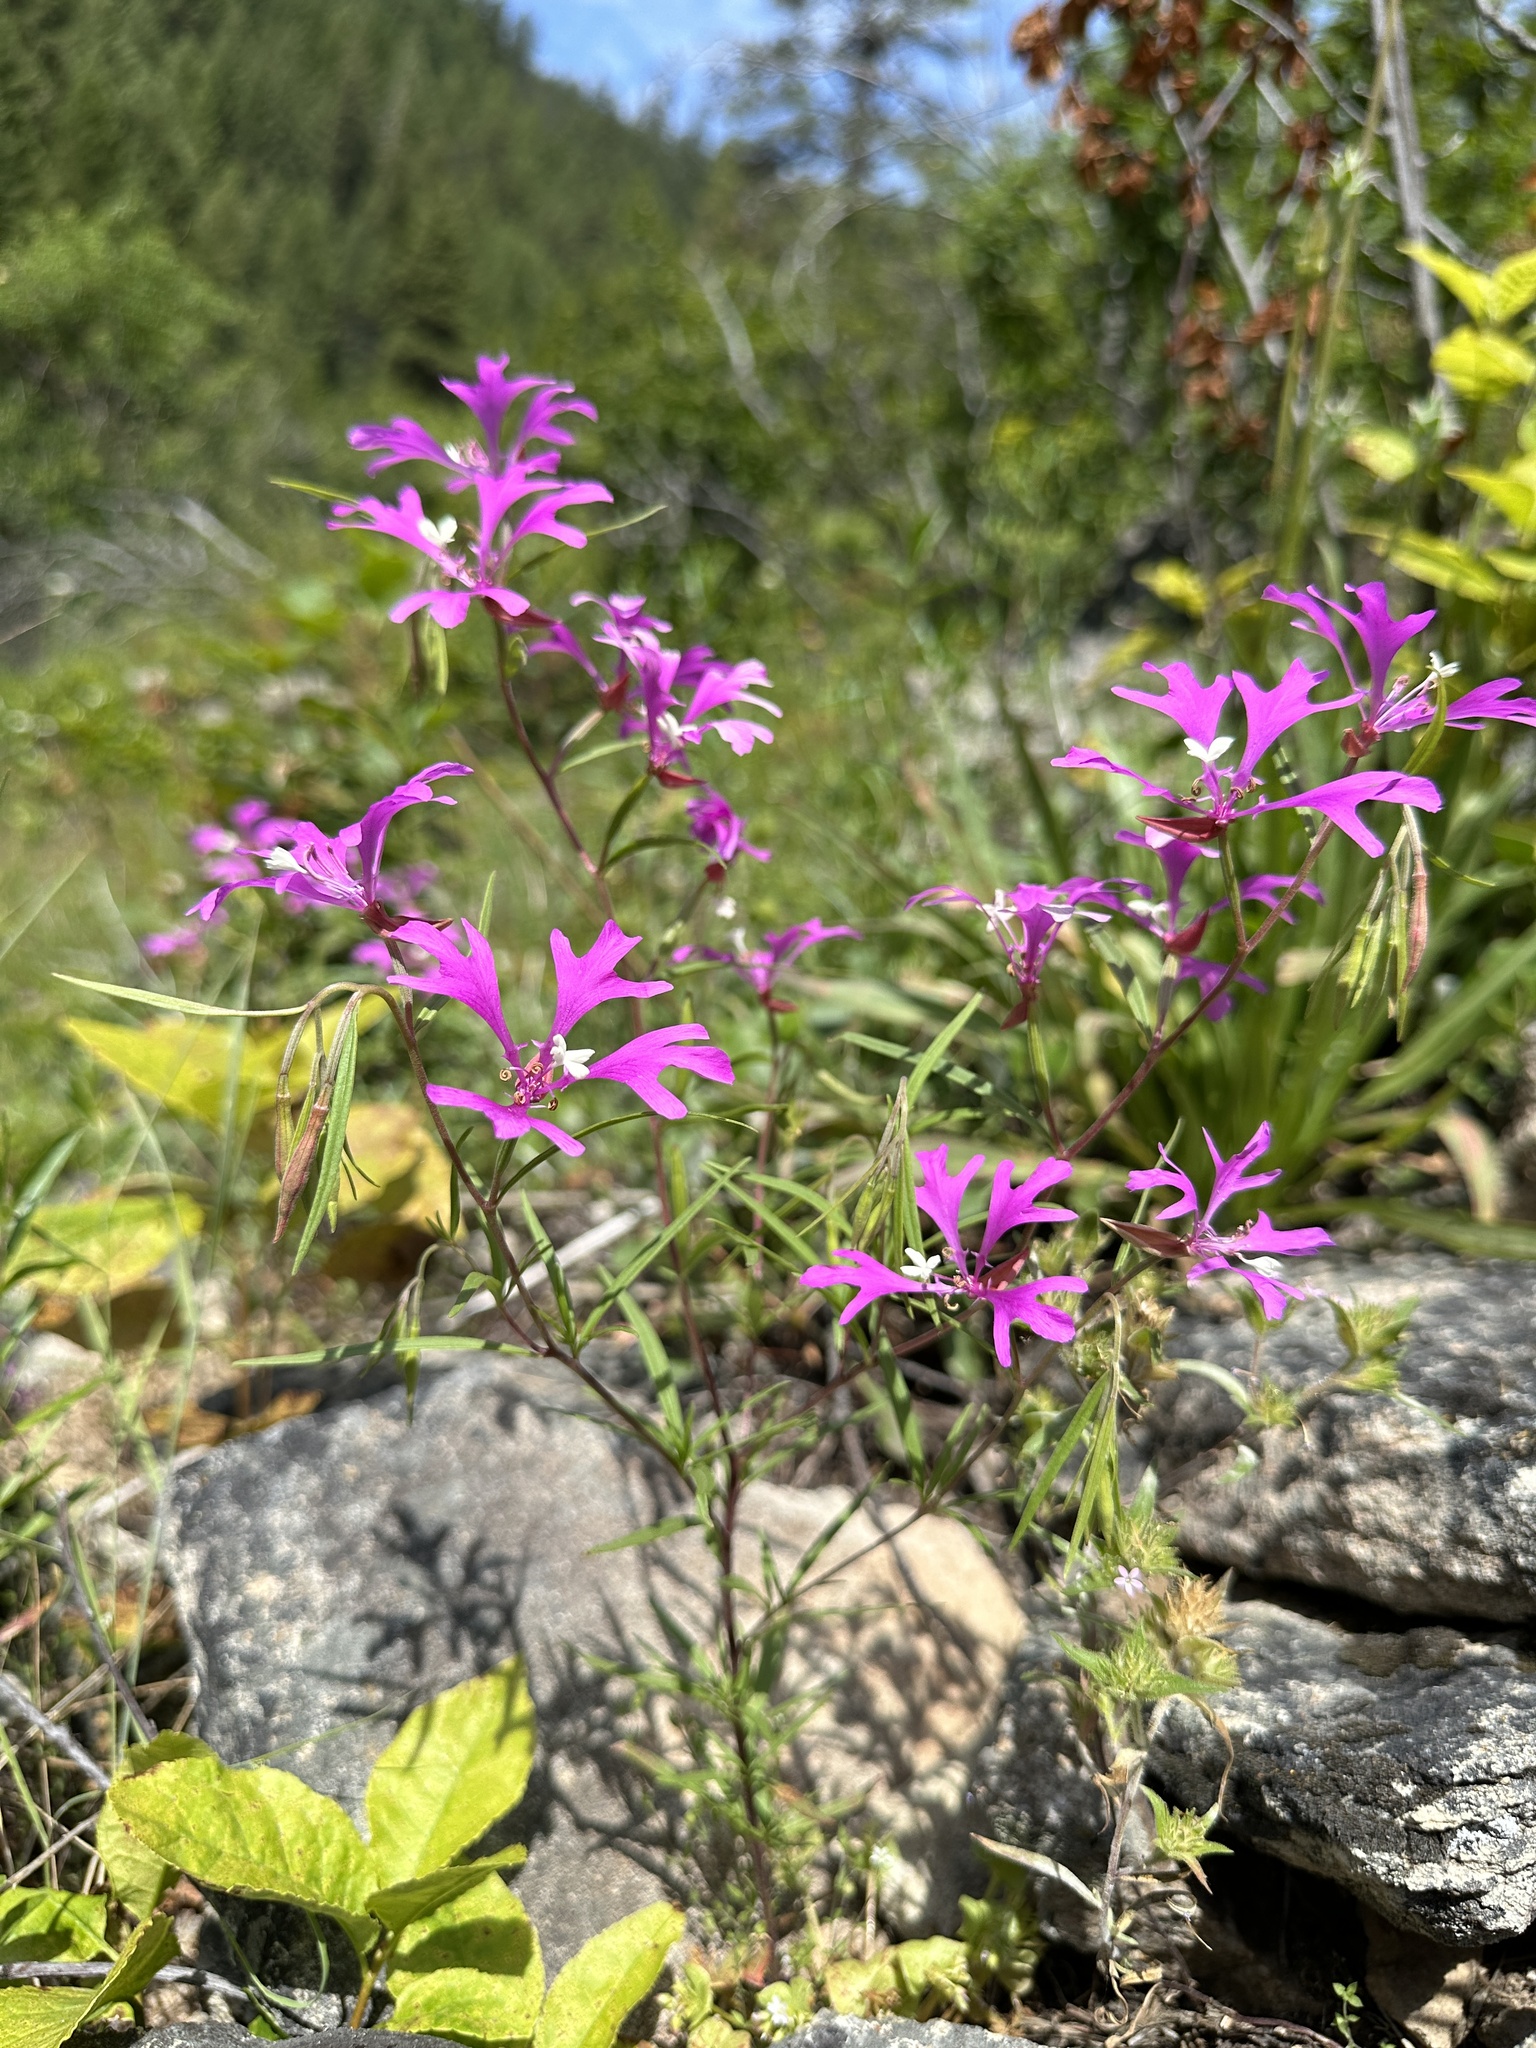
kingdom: Plantae
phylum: Tracheophyta
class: Magnoliopsida
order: Myrtales
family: Onagraceae
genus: Clarkia
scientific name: Clarkia pulchella
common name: Deer horn
